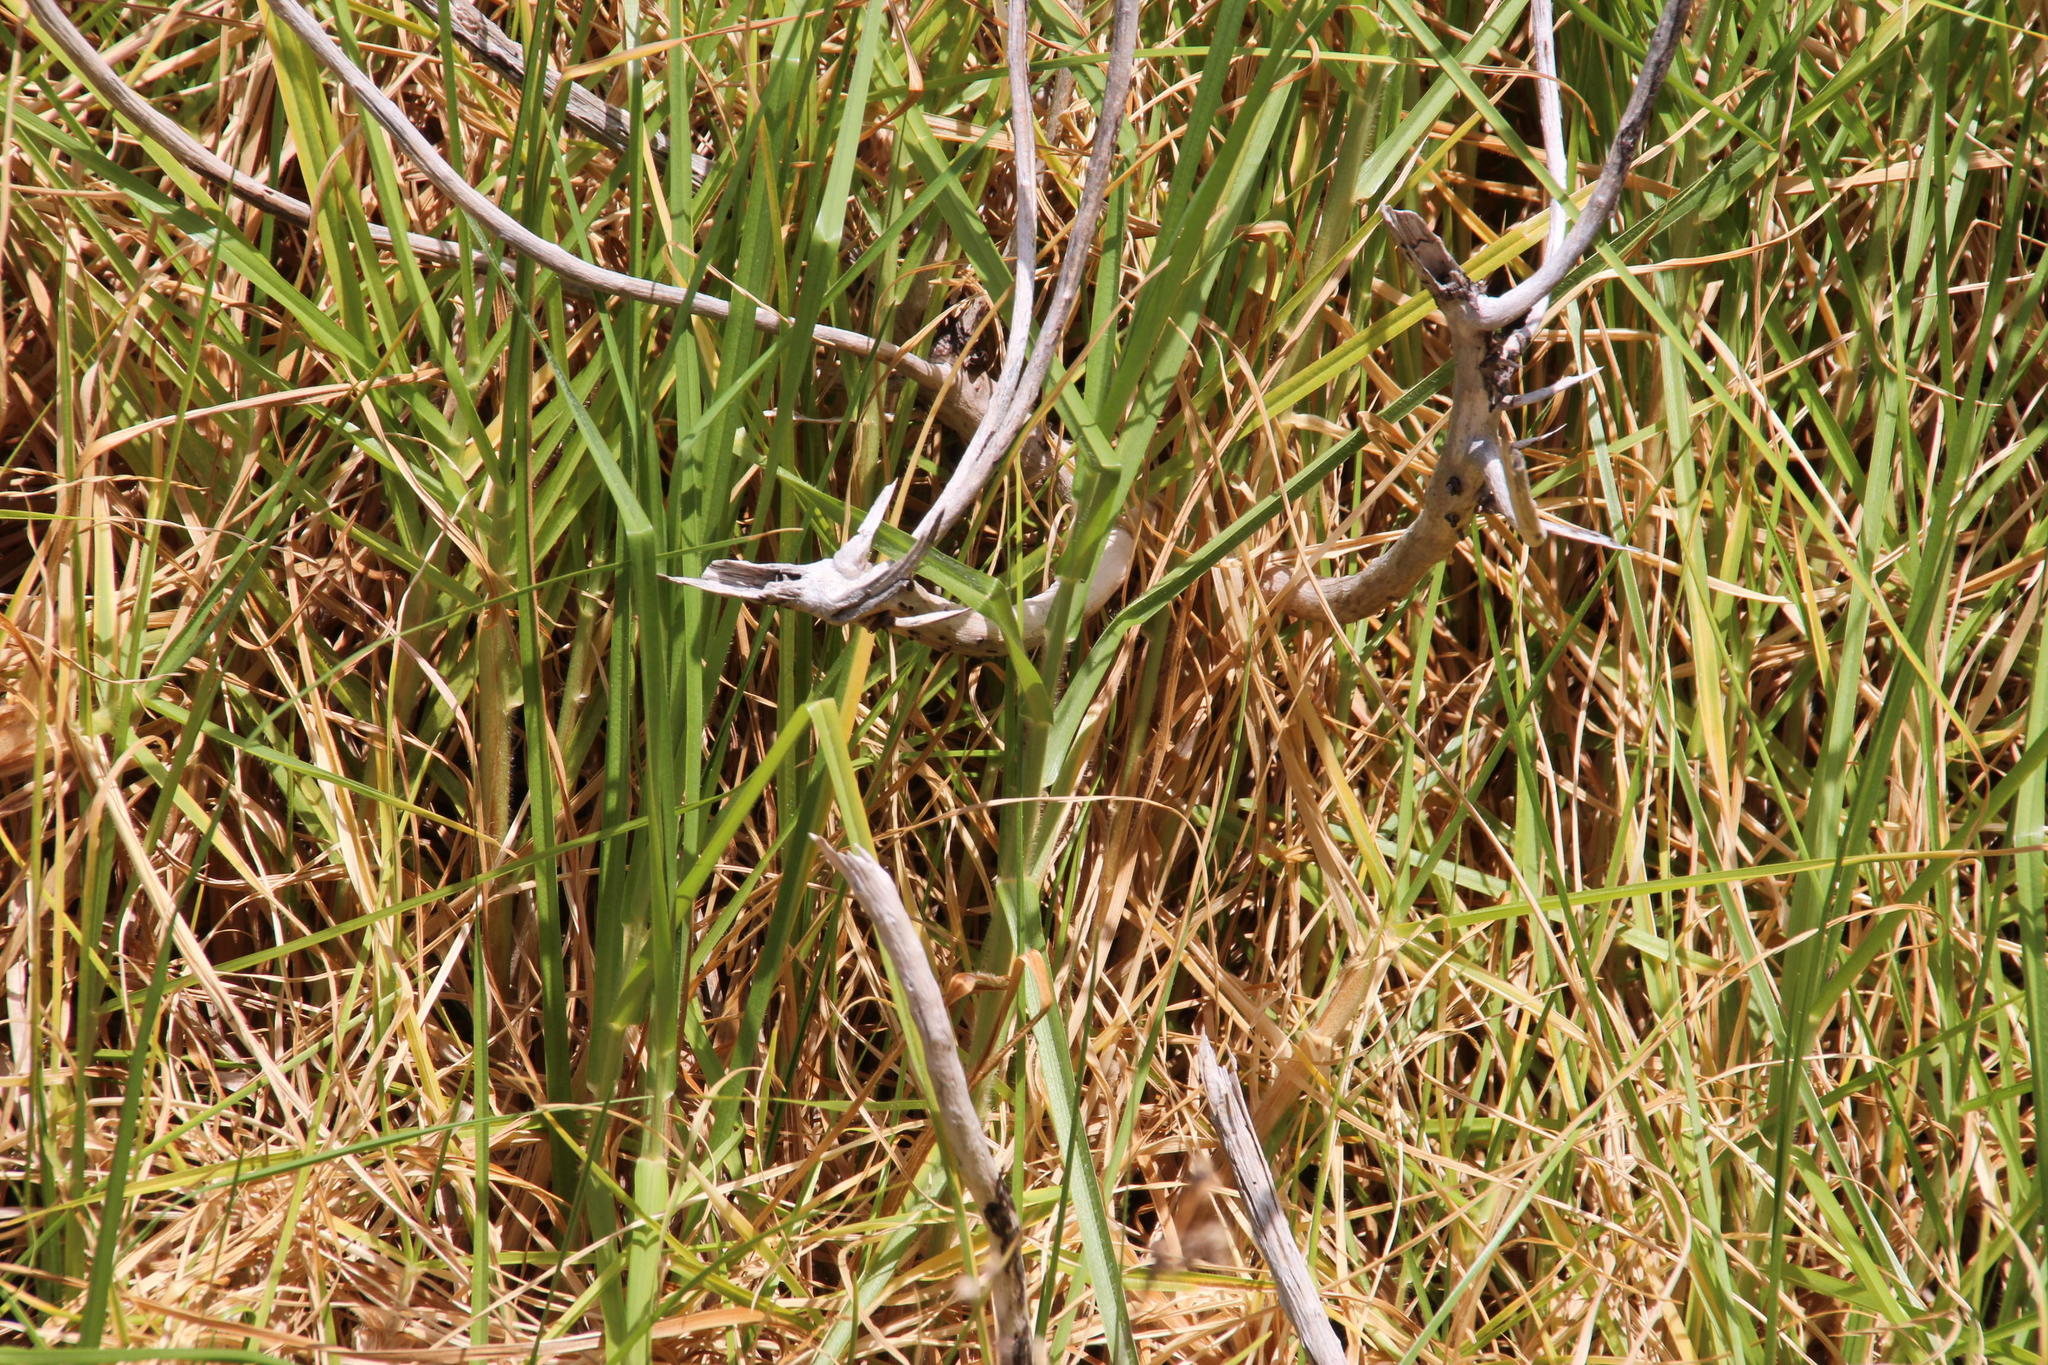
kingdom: Plantae
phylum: Tracheophyta
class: Liliopsida
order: Poales
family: Poaceae
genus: Cenchrus
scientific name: Cenchrus clandestinus
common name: Kikuyugrass
